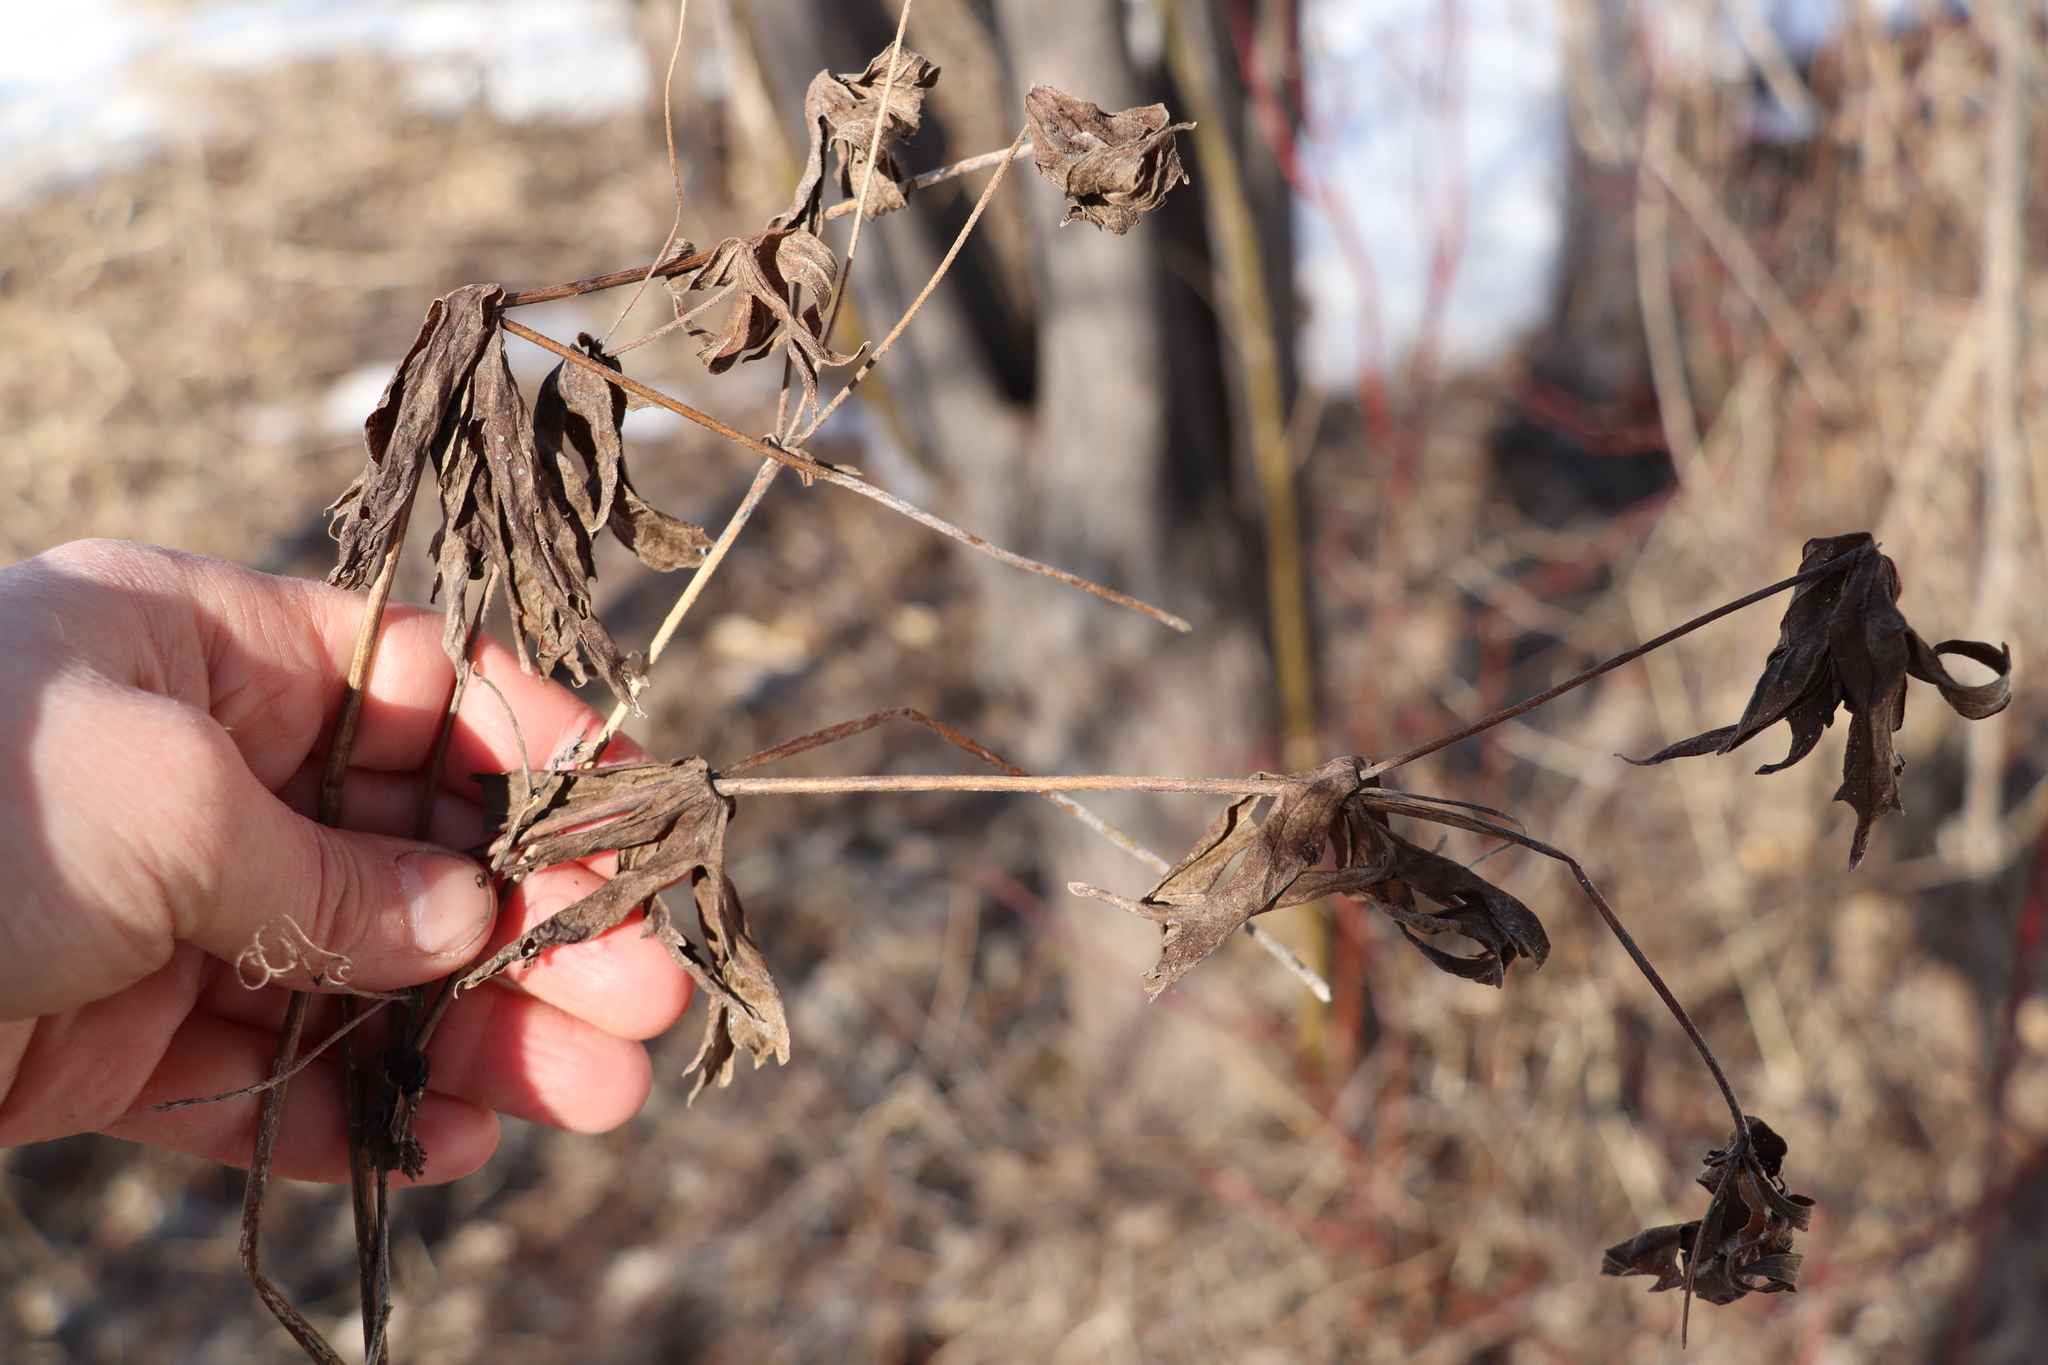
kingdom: Plantae
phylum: Tracheophyta
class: Magnoliopsida
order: Ranunculales
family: Ranunculaceae
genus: Anemonastrum
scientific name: Anemonastrum dichotomum
